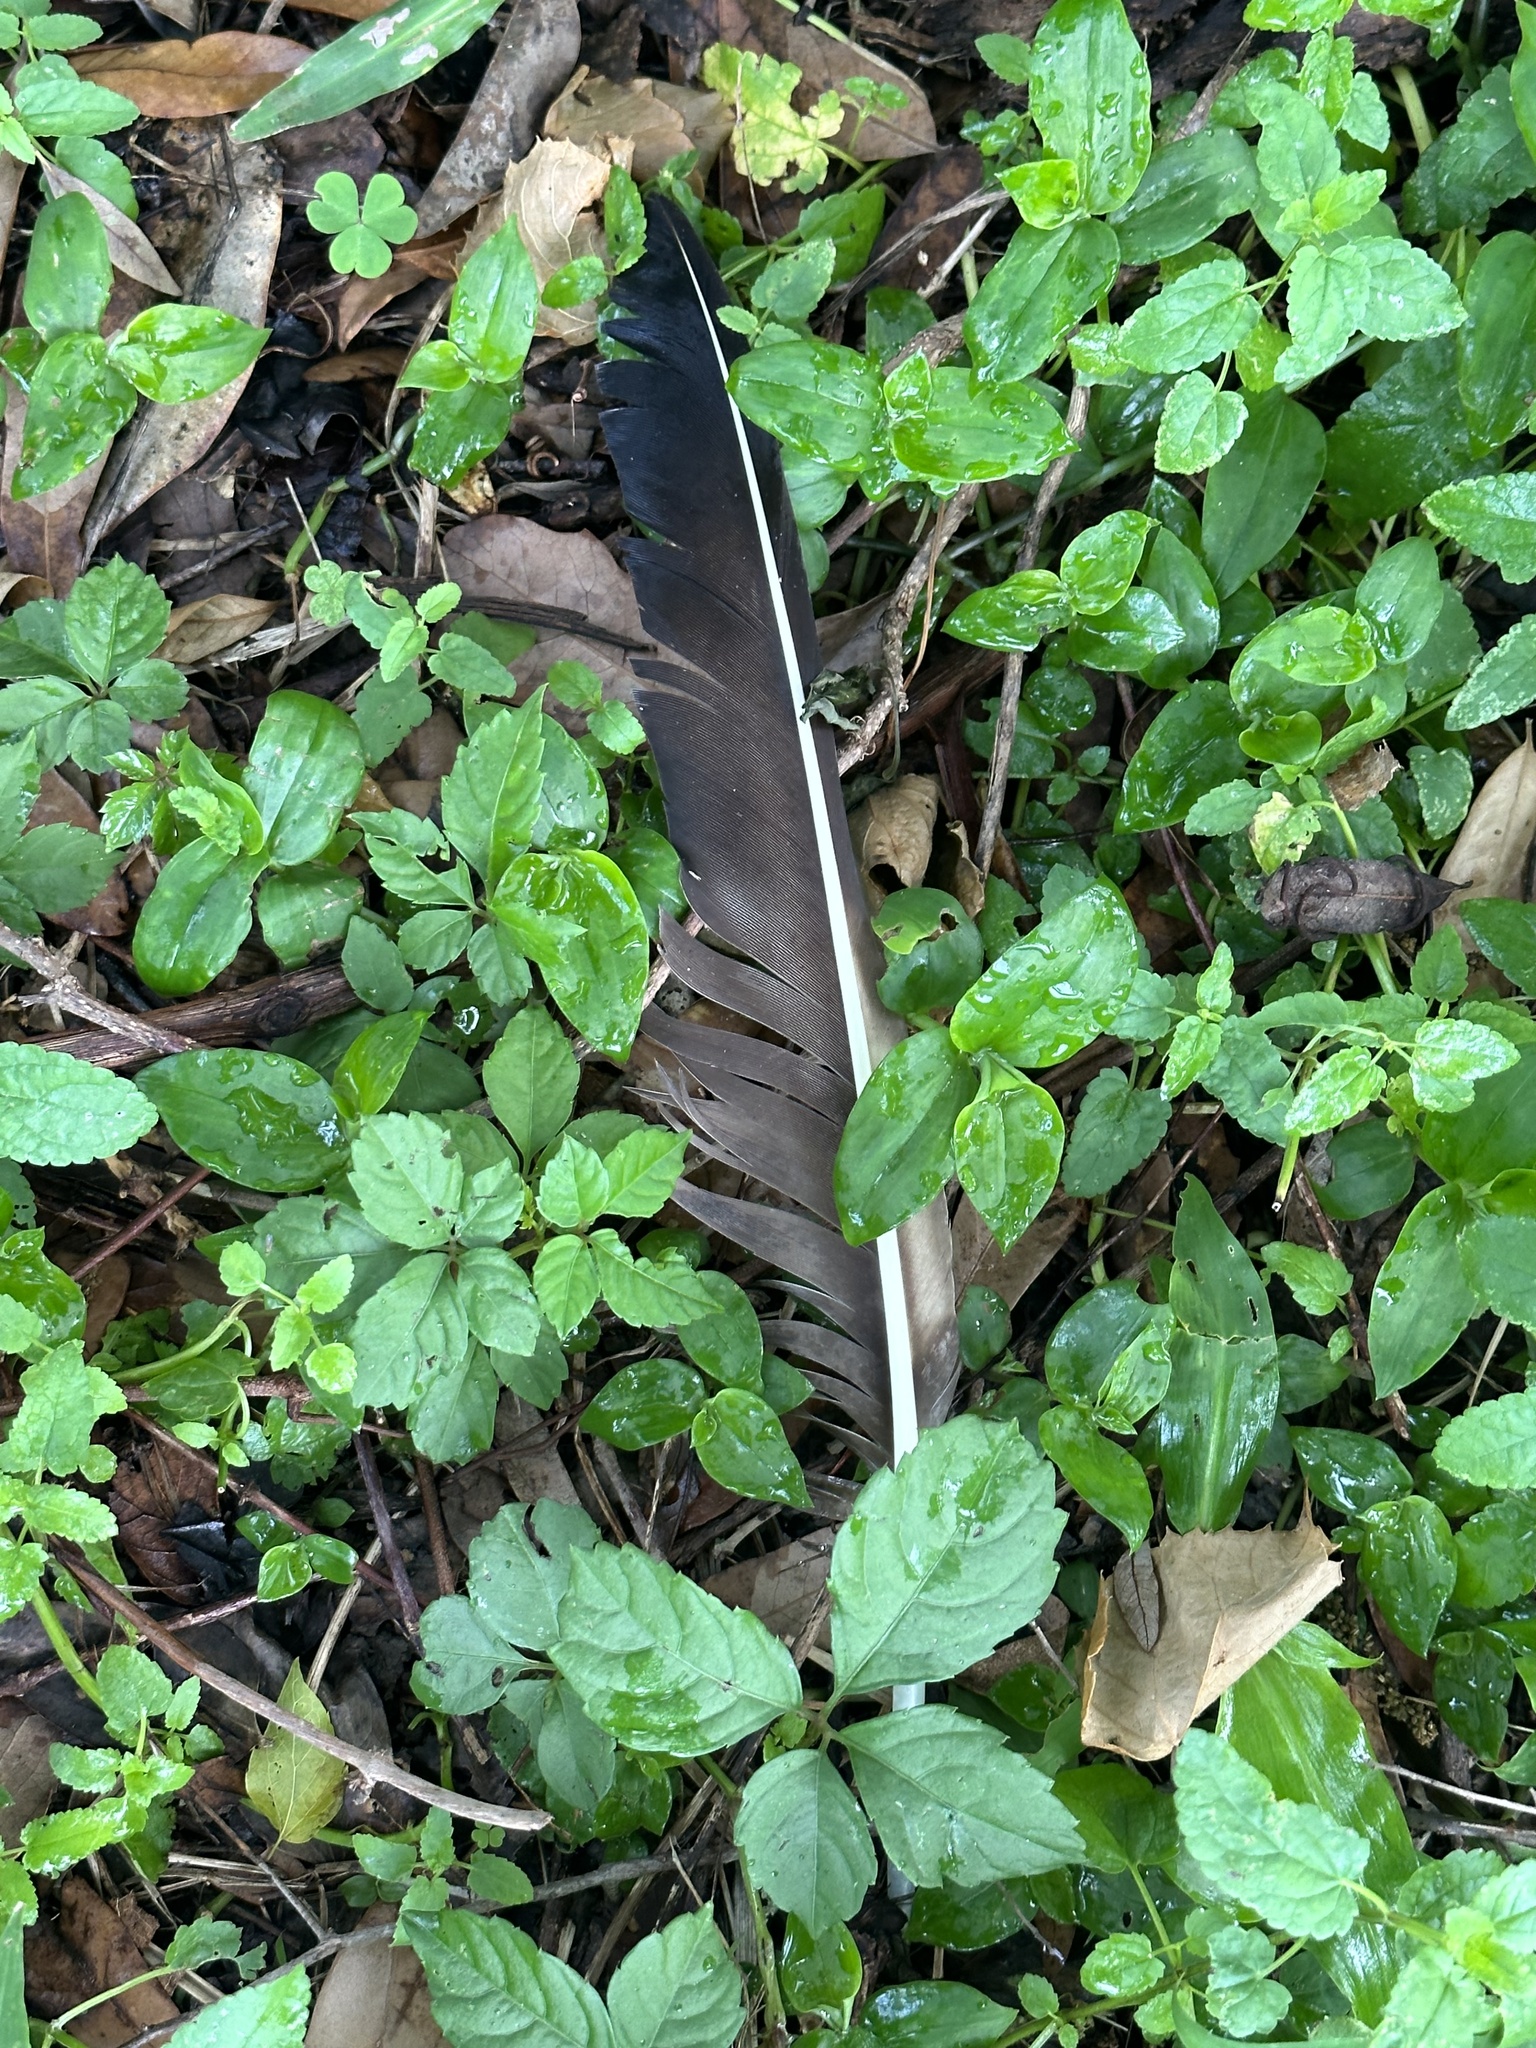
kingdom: Animalia
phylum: Chordata
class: Aves
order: Accipitriformes
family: Cathartidae
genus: Coragyps
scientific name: Coragyps atratus
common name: Black vulture
